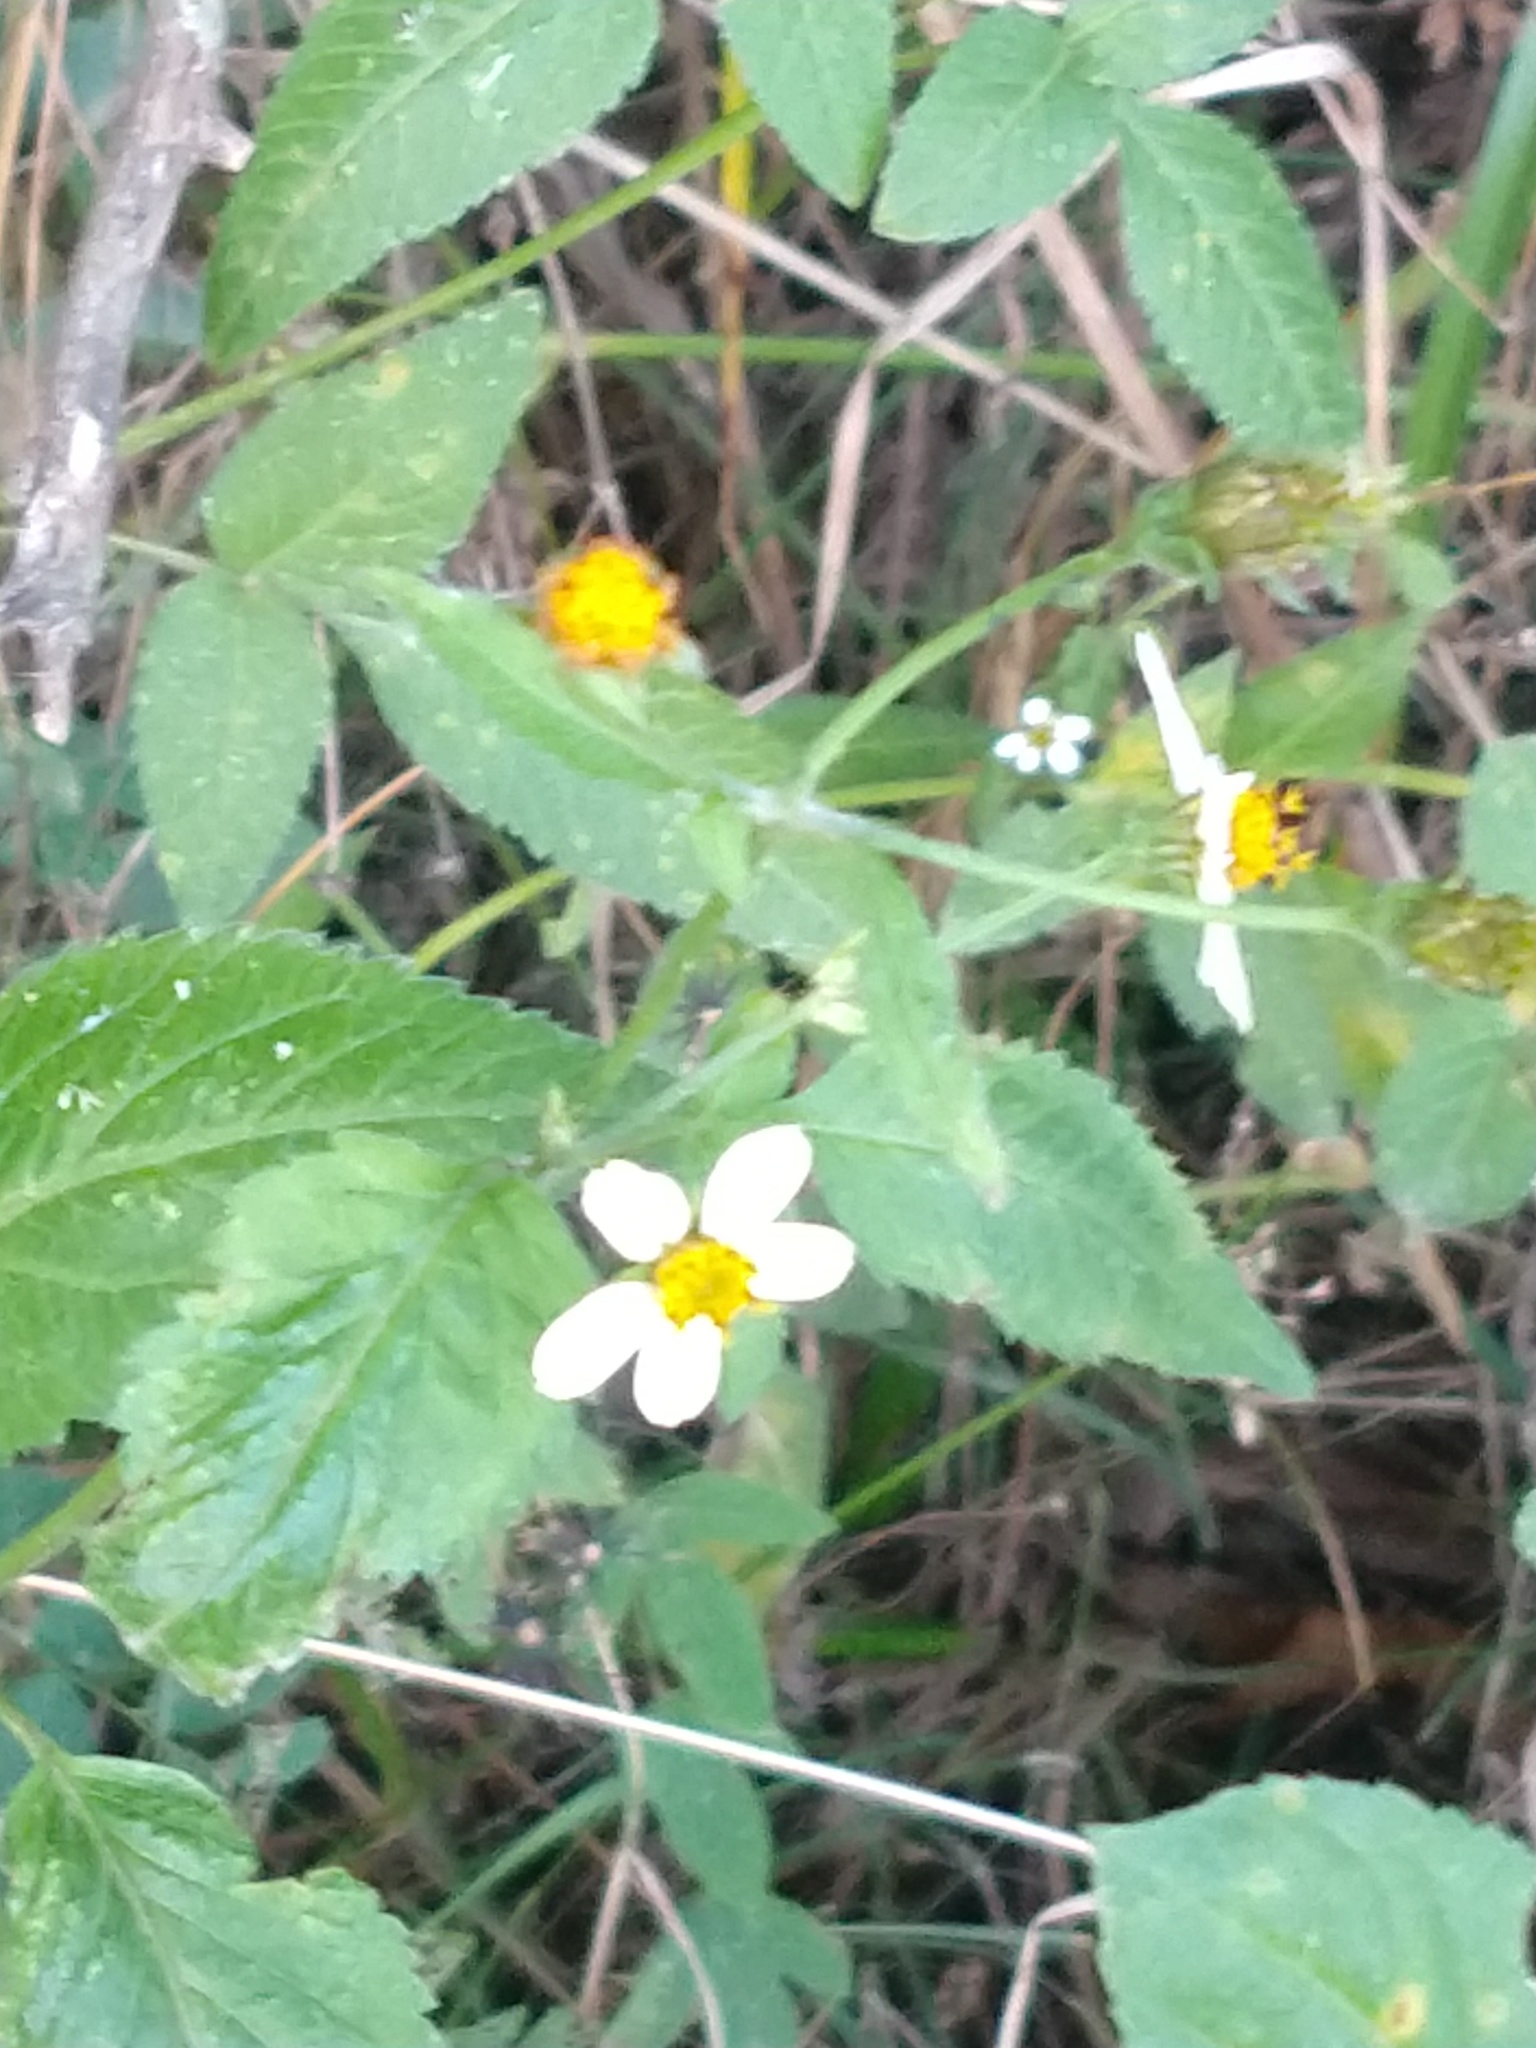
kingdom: Plantae
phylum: Tracheophyta
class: Magnoliopsida
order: Asterales
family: Asteraceae
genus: Bidens
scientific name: Bidens pilosa
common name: Black-jack
